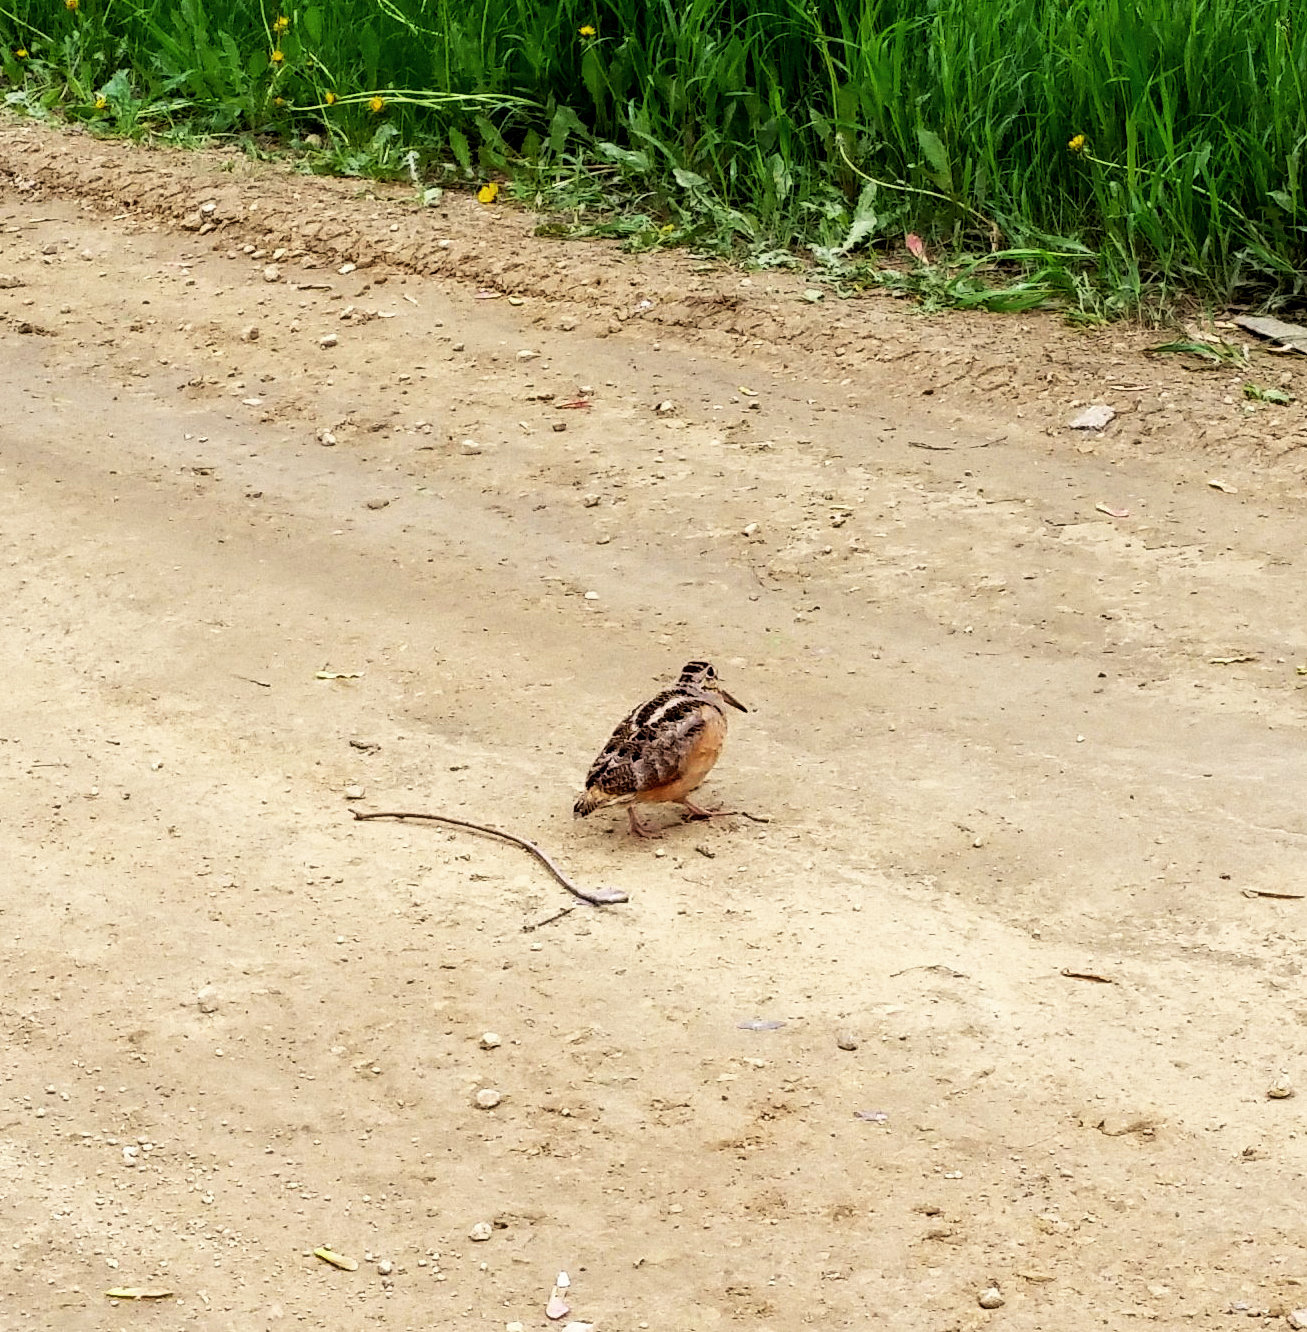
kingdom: Animalia
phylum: Chordata
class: Aves
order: Charadriiformes
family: Scolopacidae
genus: Scolopax
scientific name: Scolopax minor
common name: American woodcock
